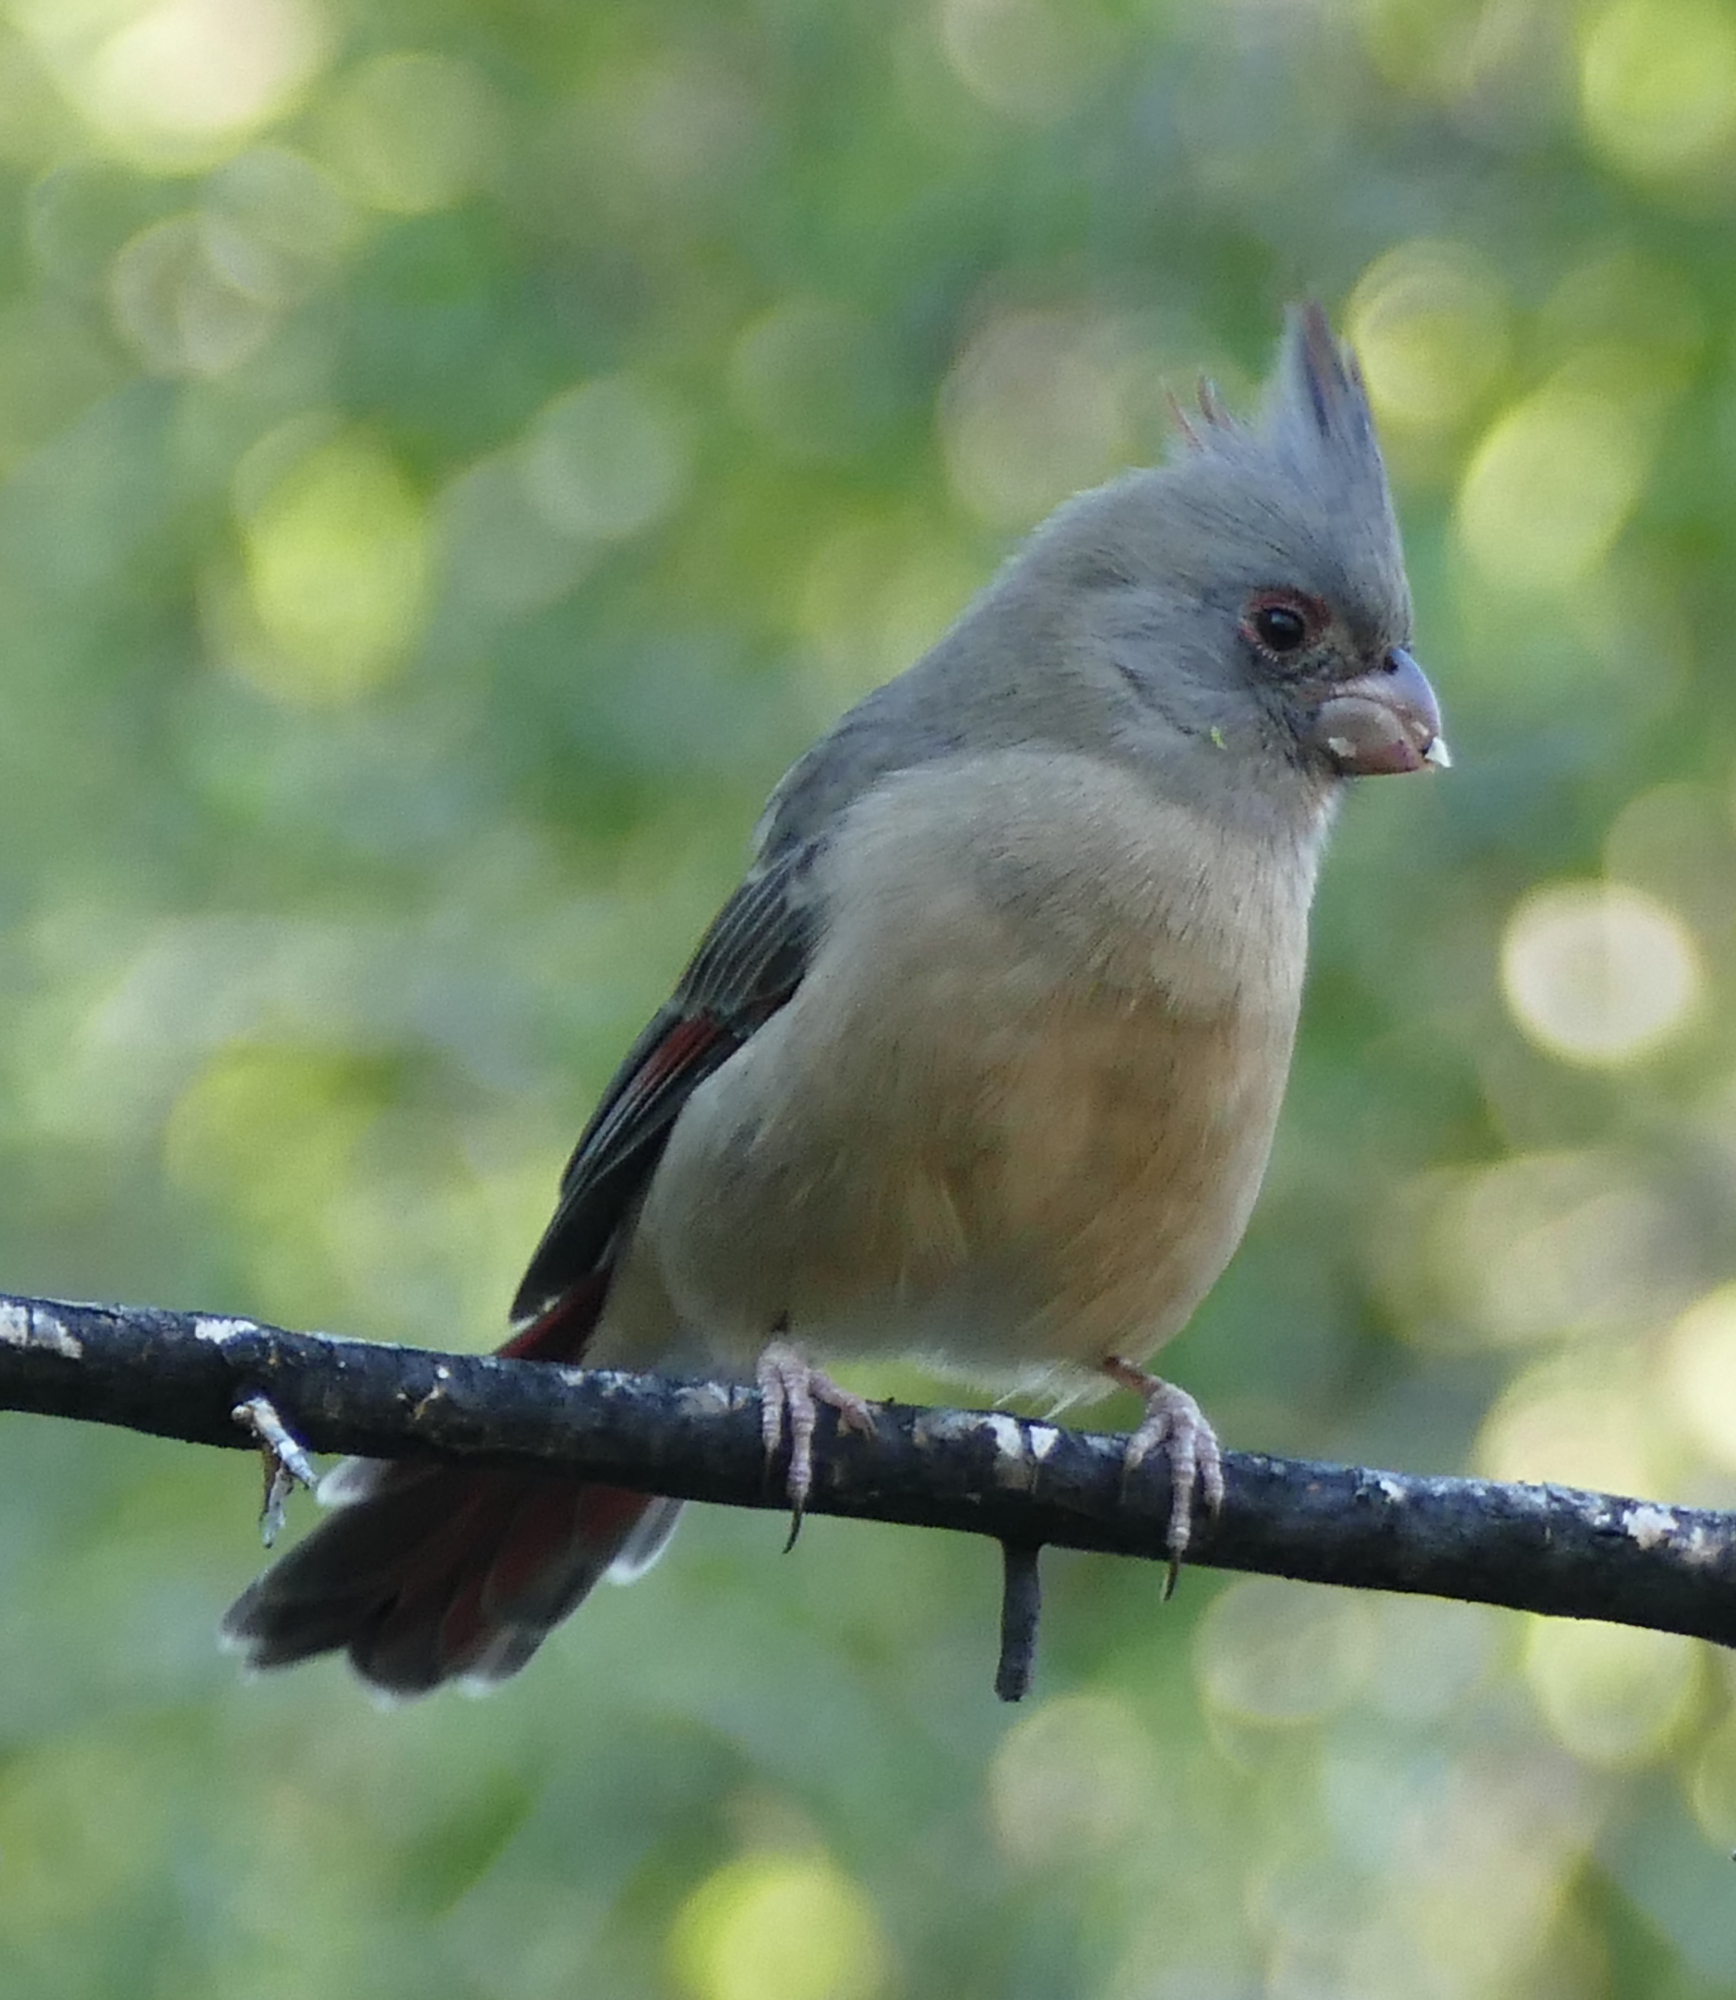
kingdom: Animalia
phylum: Chordata
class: Aves
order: Passeriformes
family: Cardinalidae
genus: Cardinalis
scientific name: Cardinalis sinuatus
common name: Pyrrhuloxia
